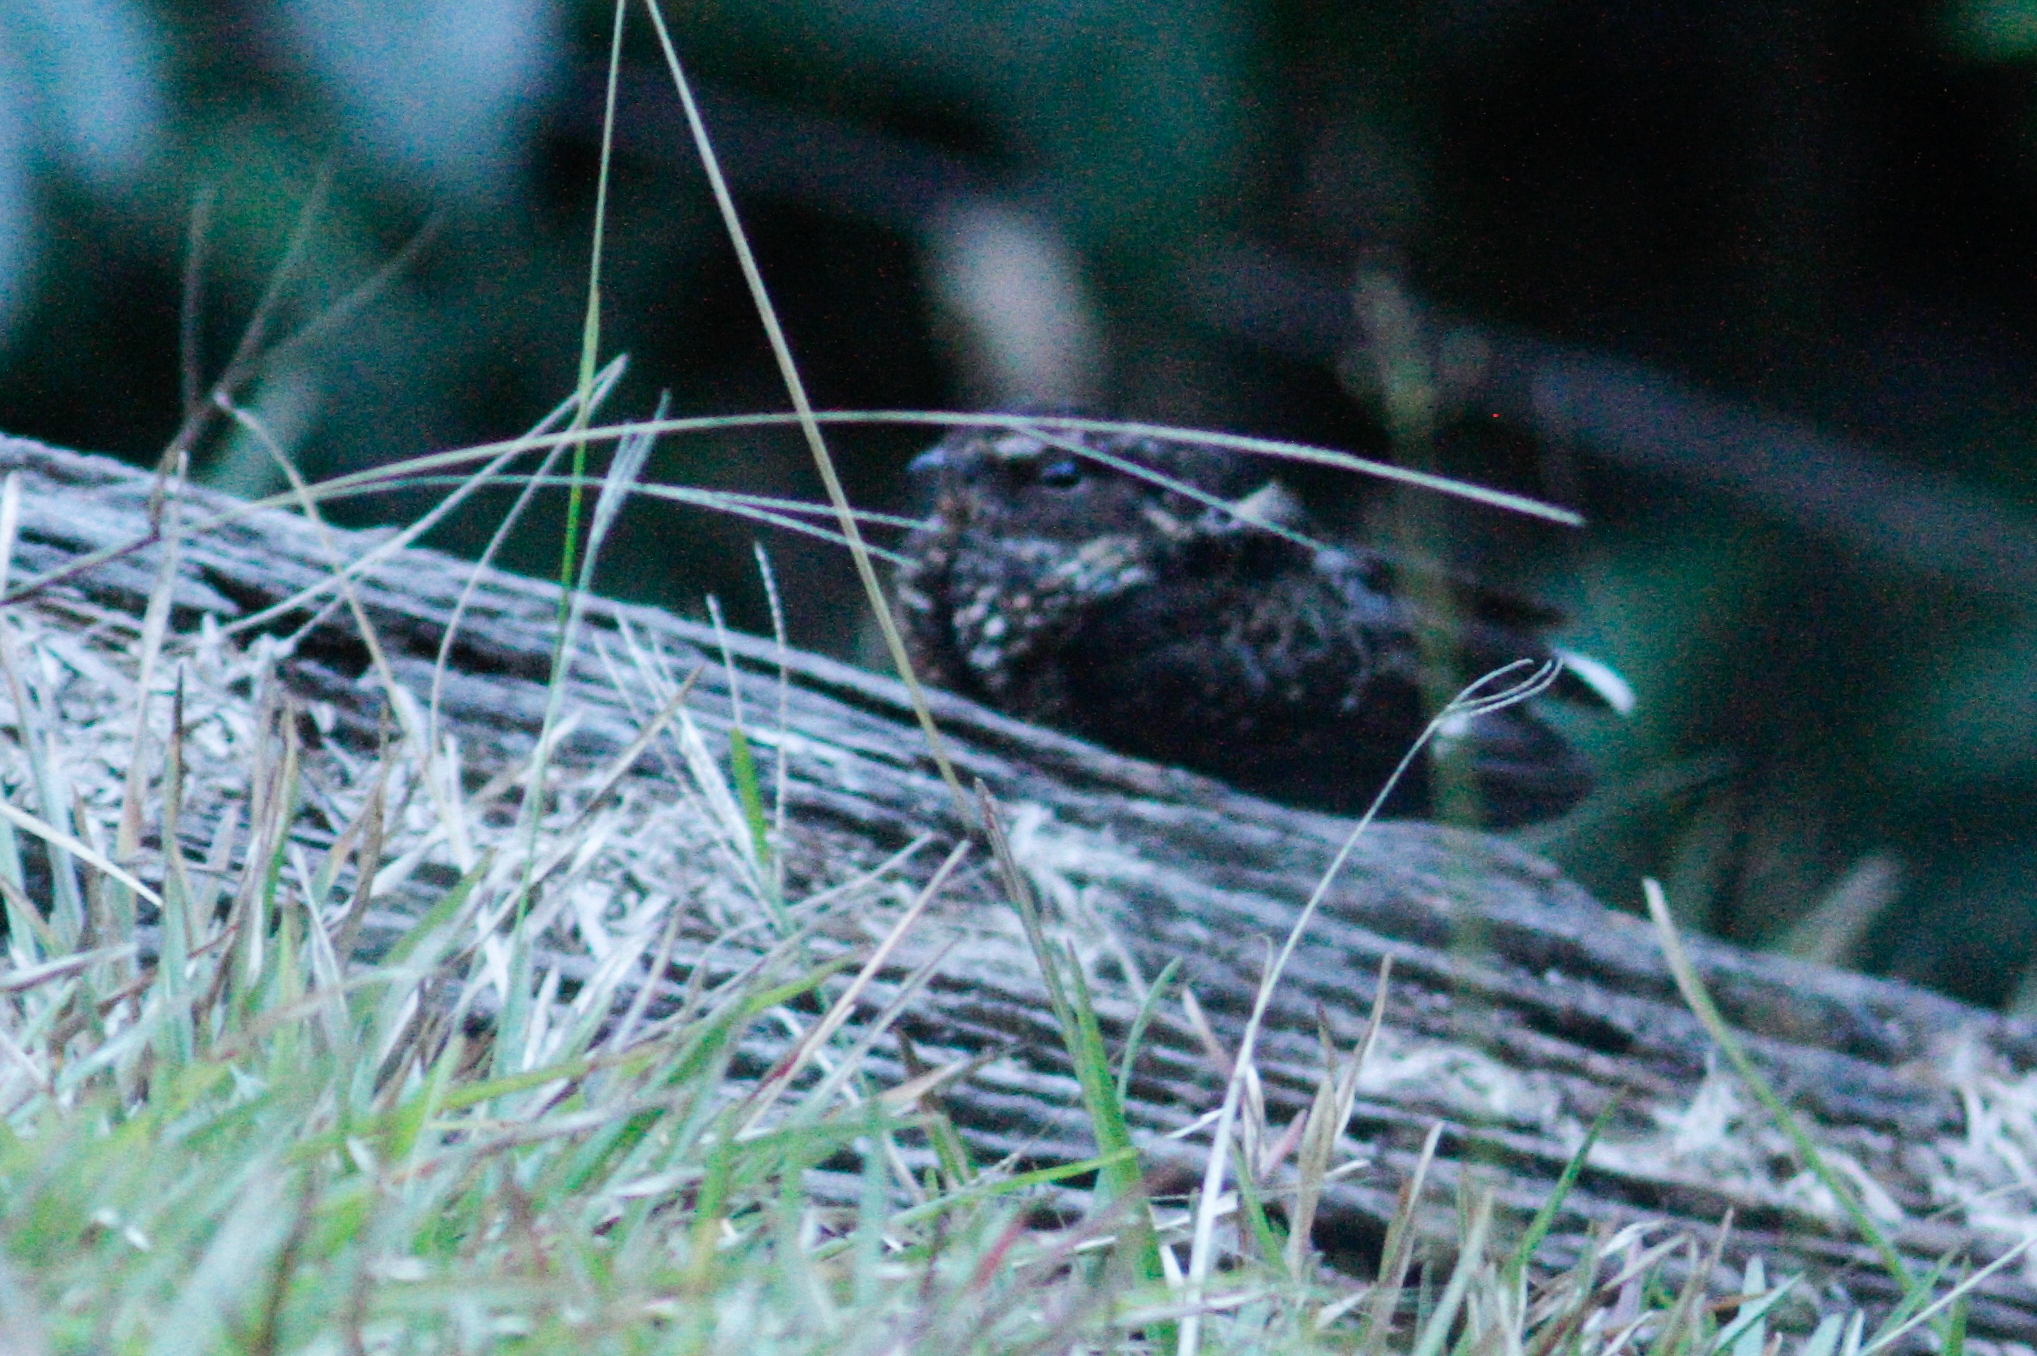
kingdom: Animalia
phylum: Chordata
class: Aves
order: Caprimulgiformes
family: Caprimulgidae
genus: Nyctipolus
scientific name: Nyctipolus nigrescens
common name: Blackish nightjar
